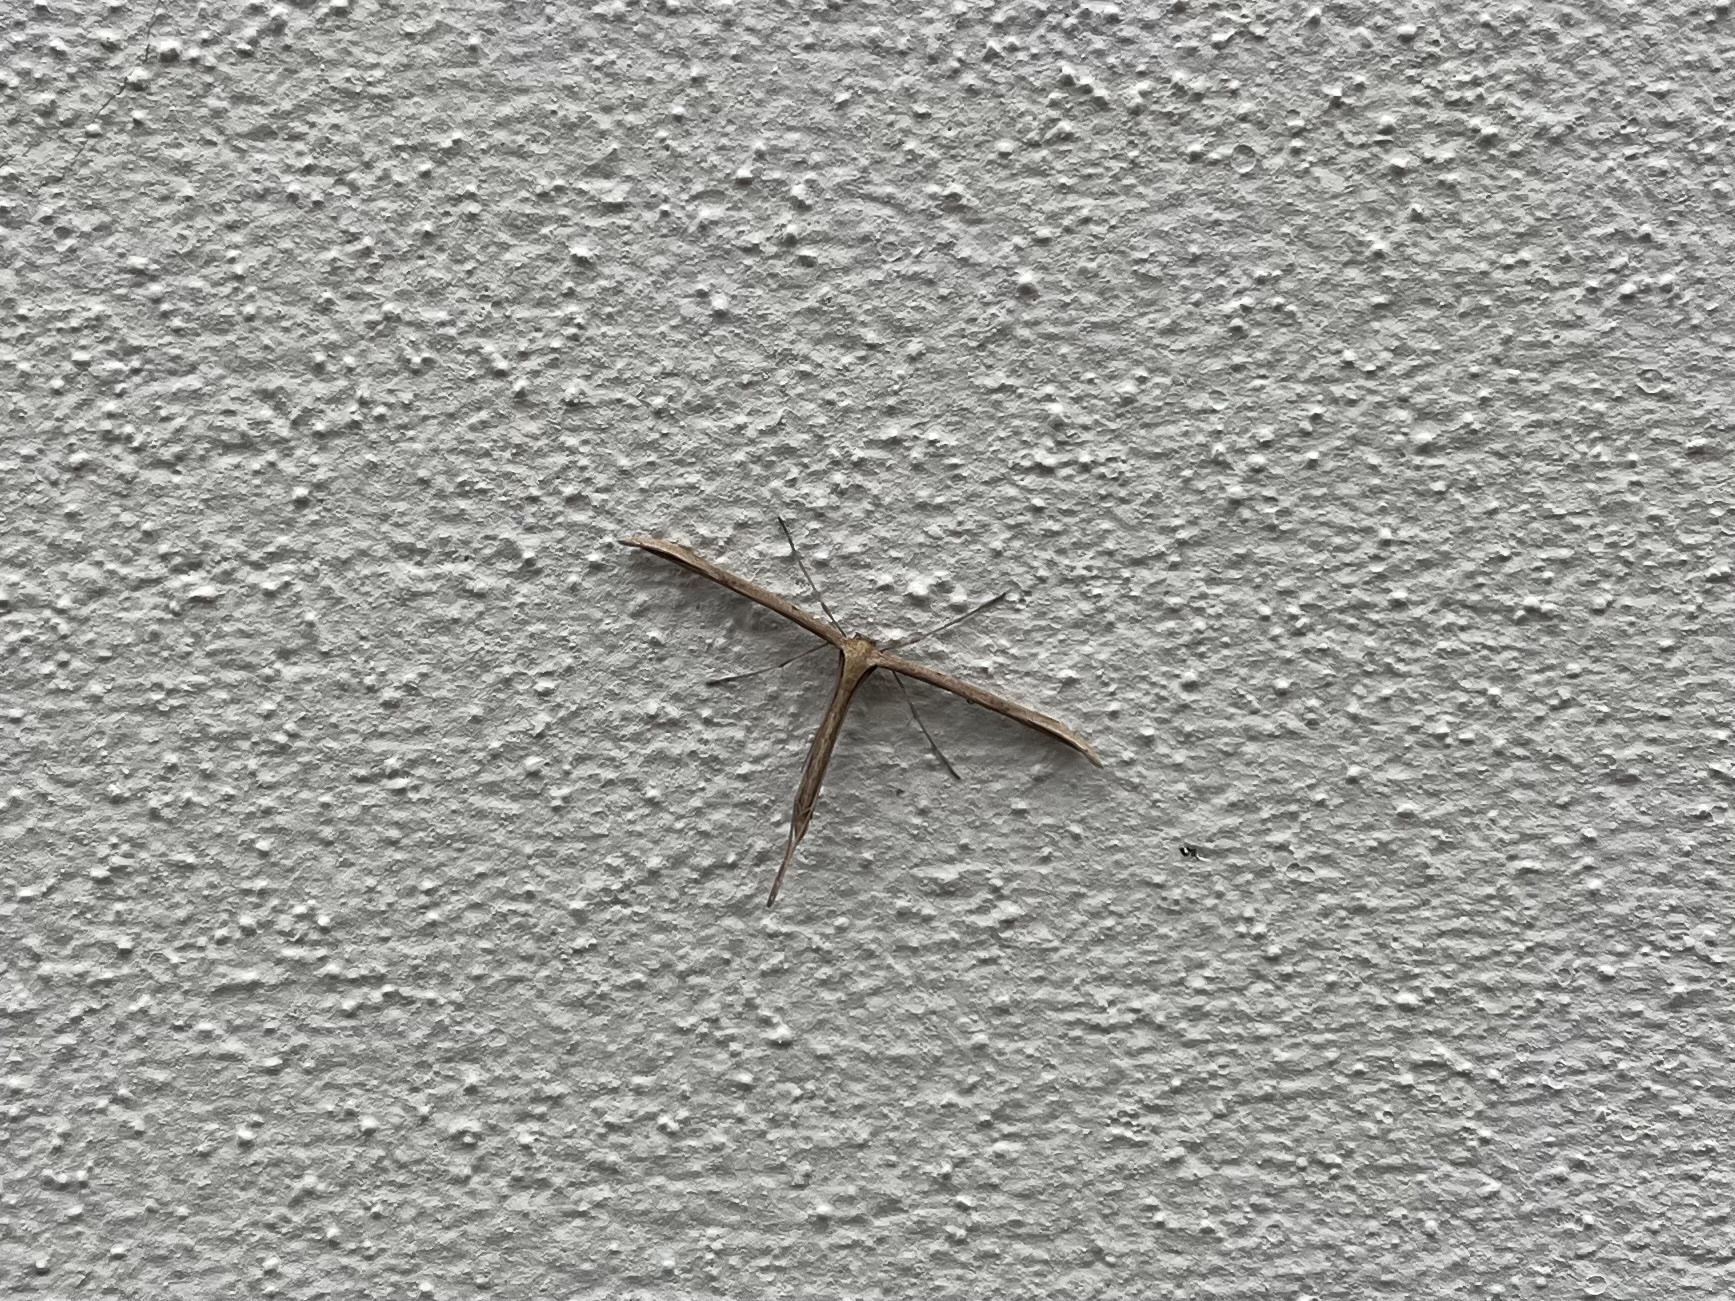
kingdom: Animalia
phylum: Arthropoda
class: Insecta
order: Lepidoptera
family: Pterophoridae
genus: Emmelina
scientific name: Emmelina monodactyla
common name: Common plume
